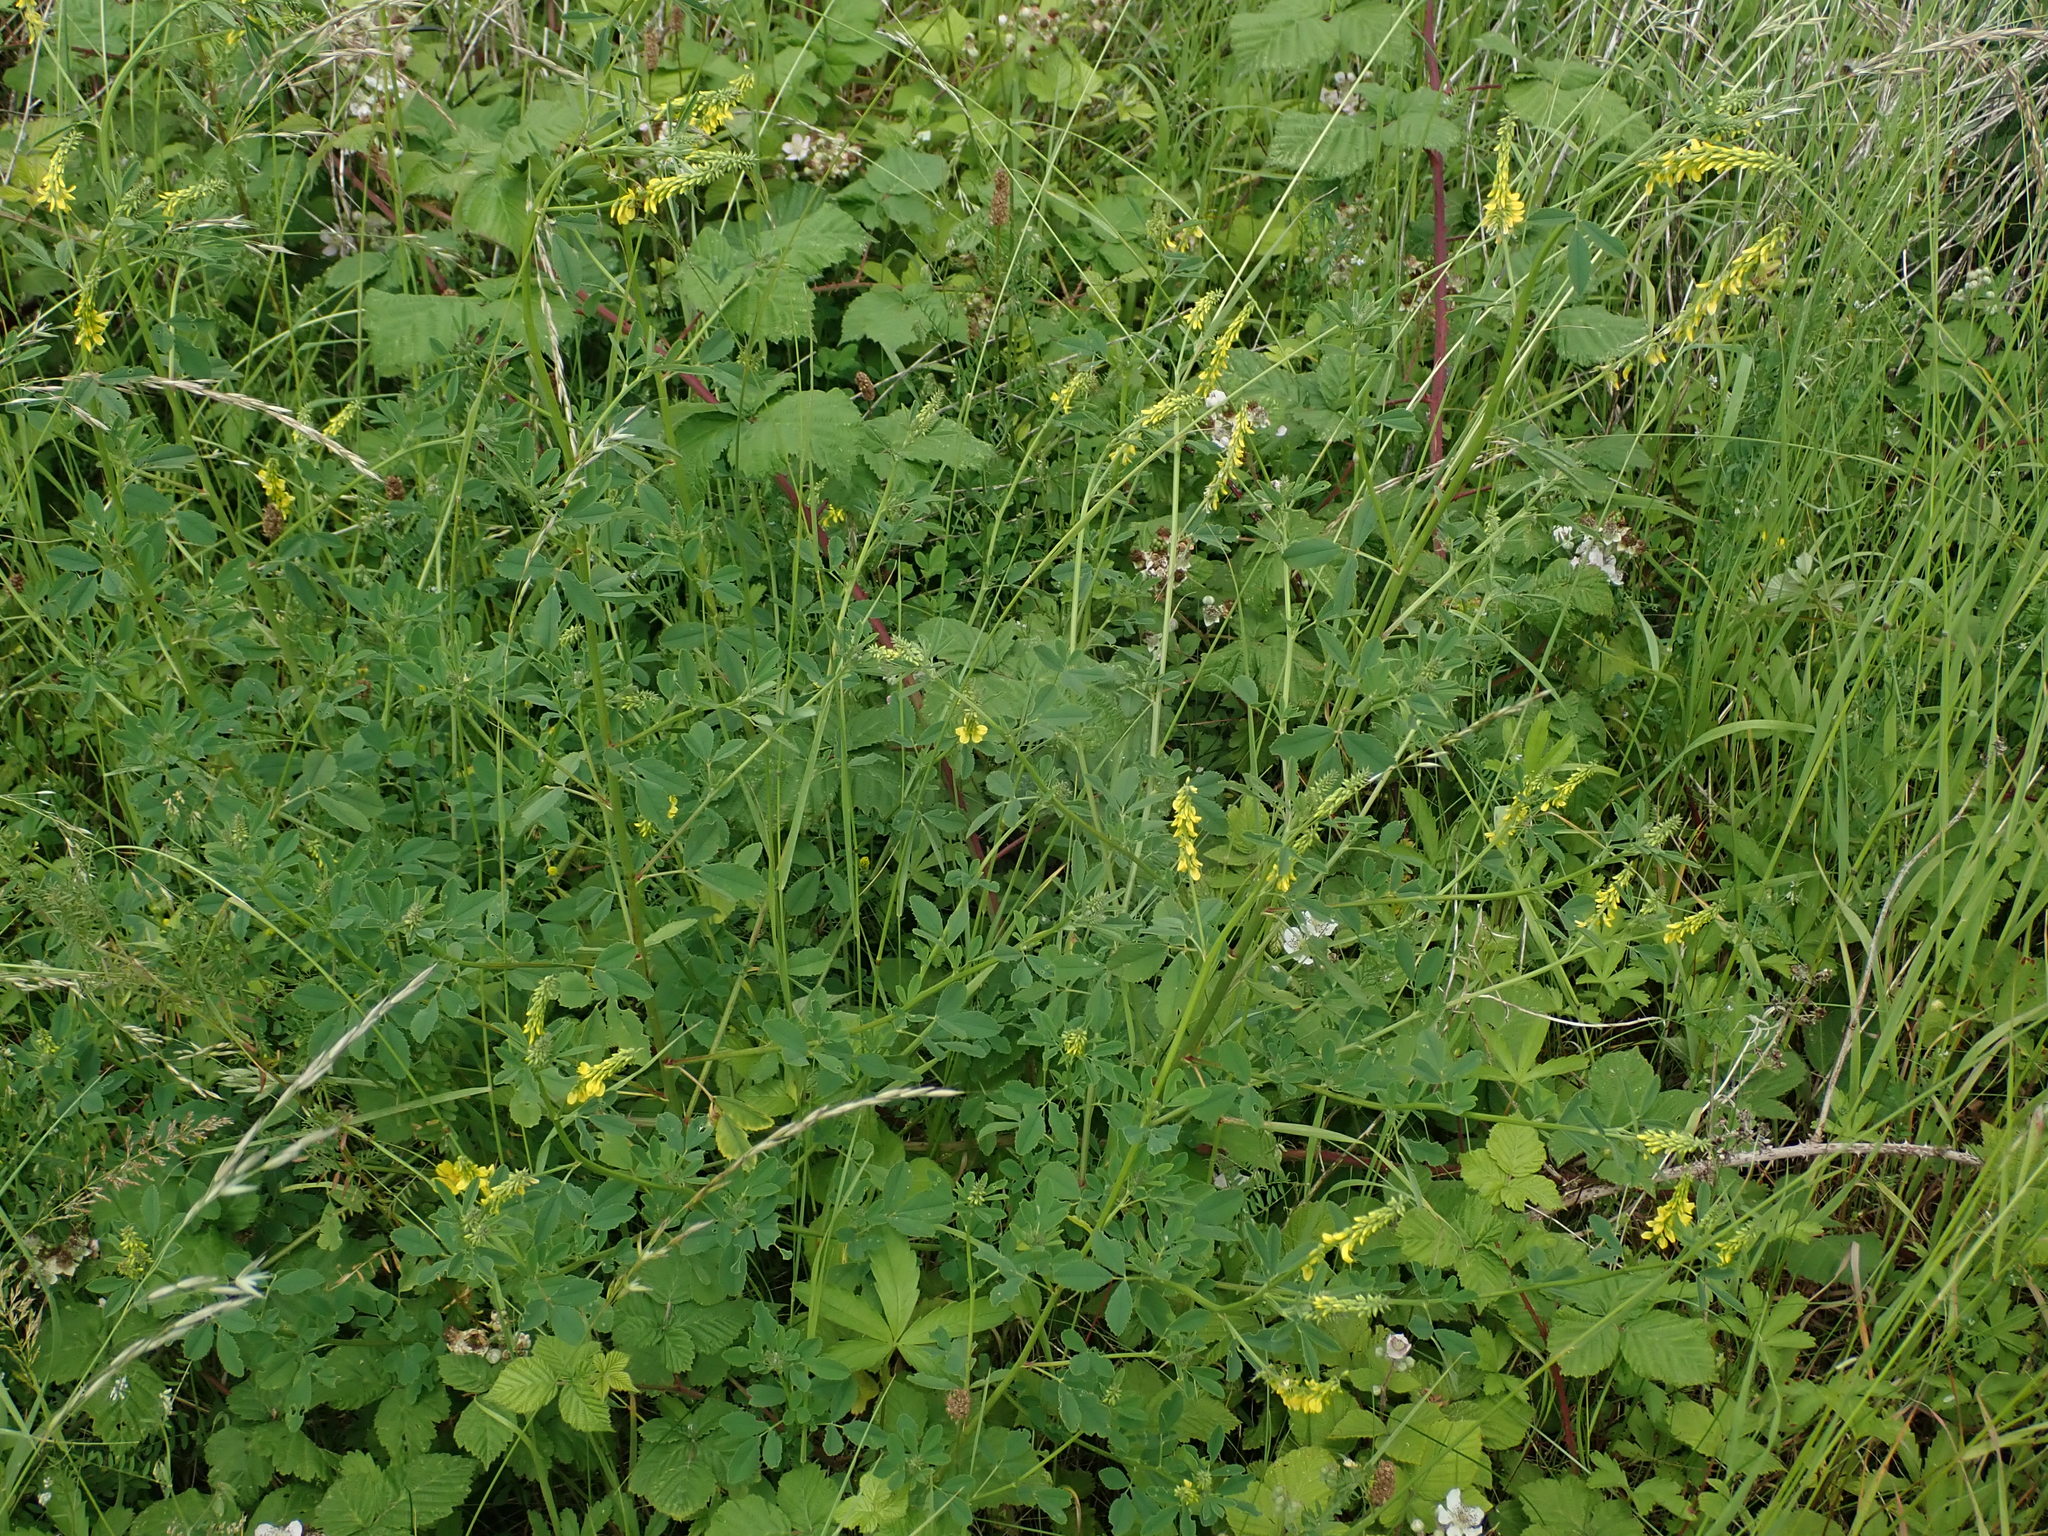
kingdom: Plantae
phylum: Tracheophyta
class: Magnoliopsida
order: Fabales
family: Fabaceae
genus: Melilotus
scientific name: Melilotus officinalis
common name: Sweetclover
